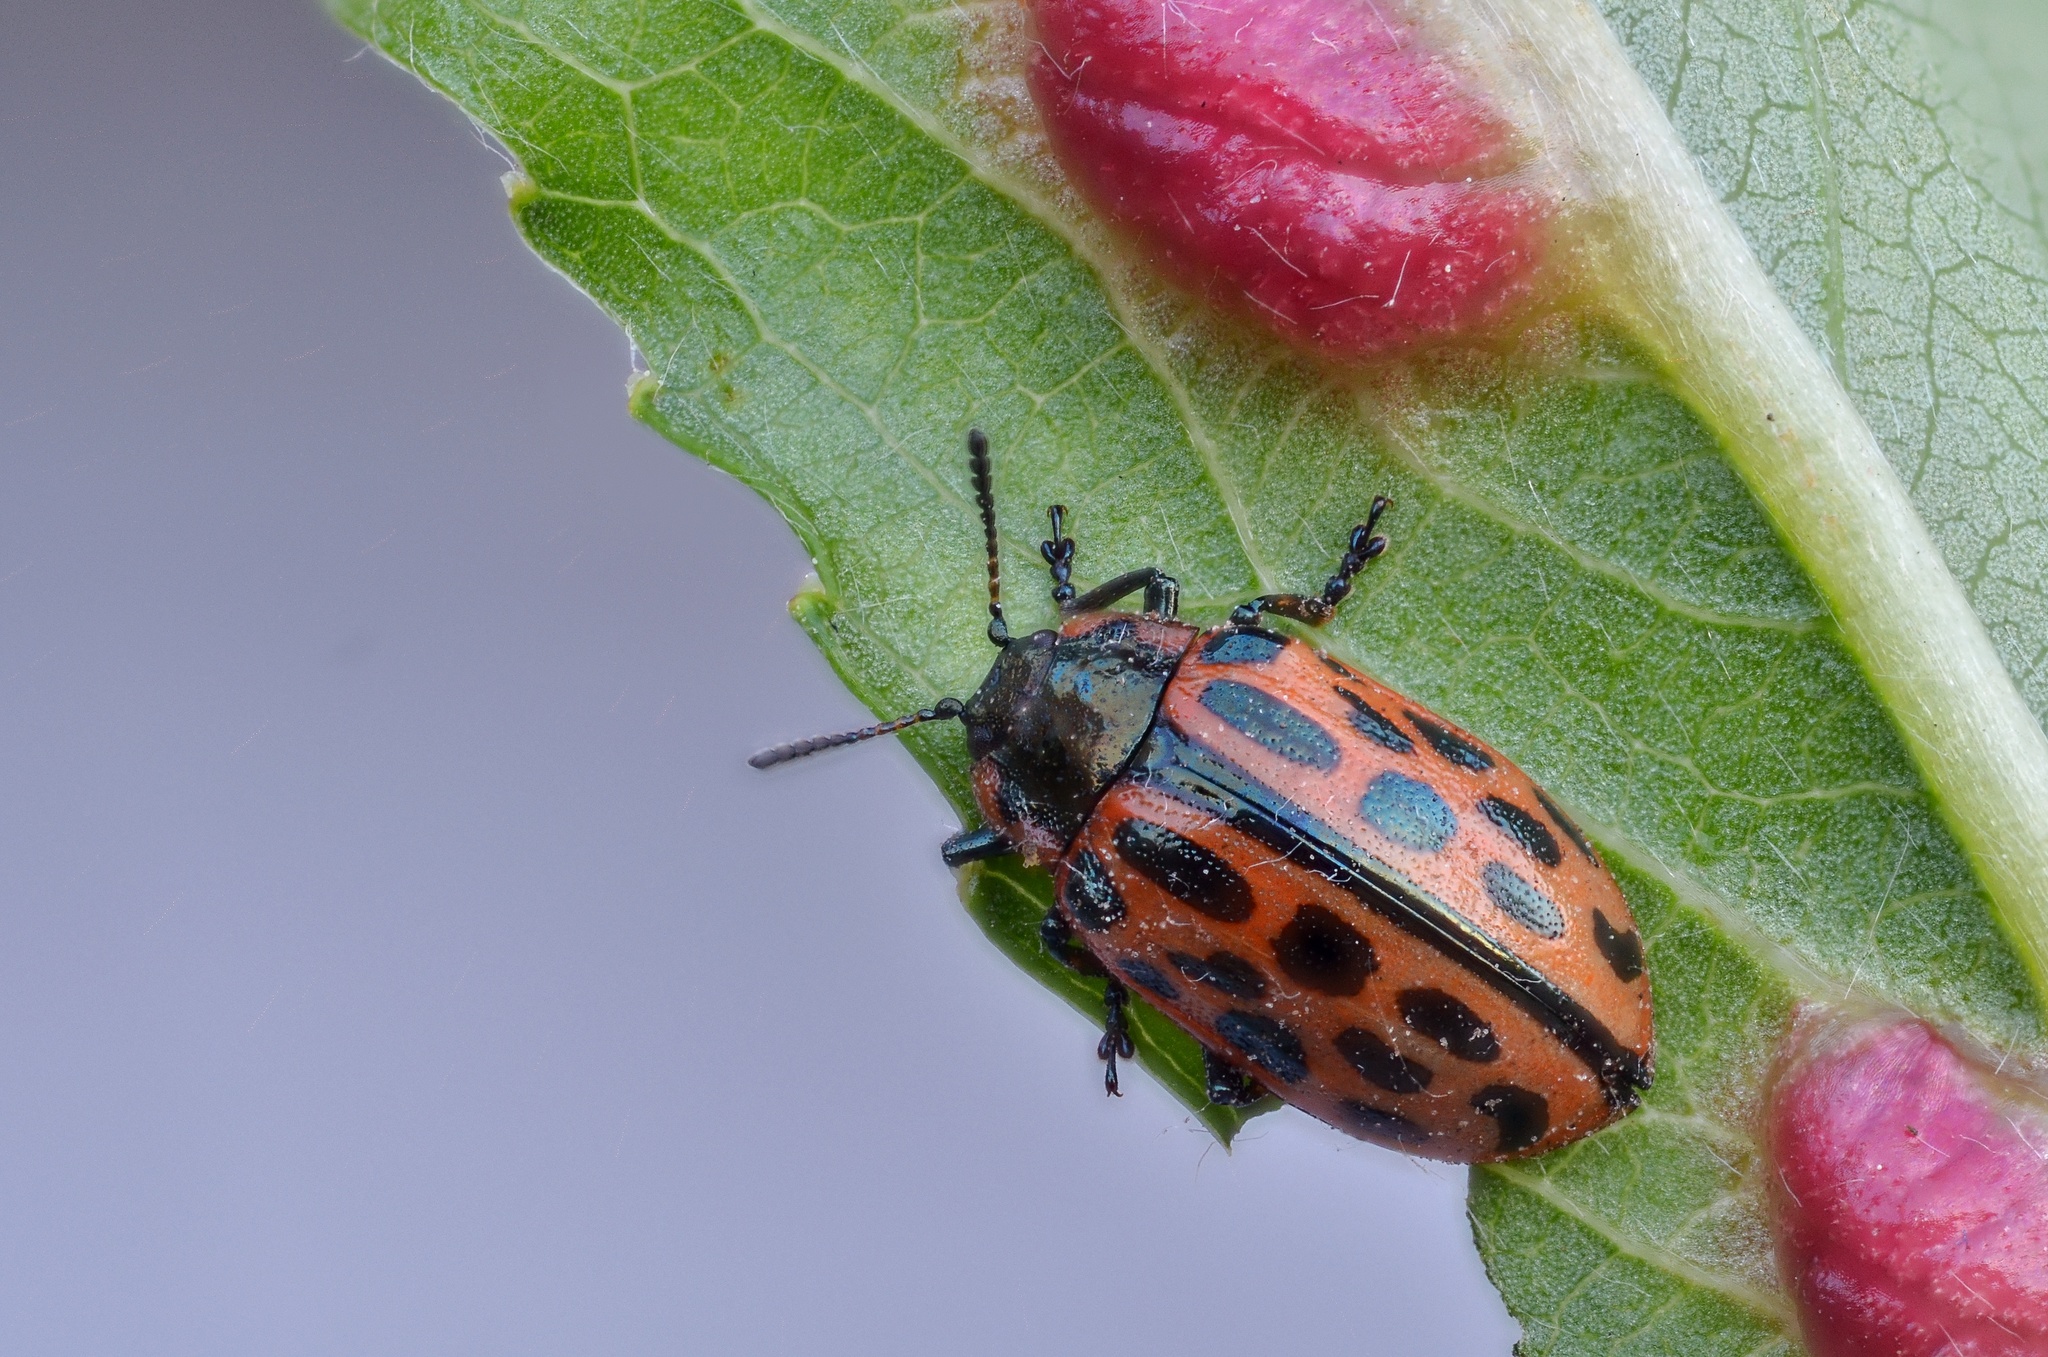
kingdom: Animalia
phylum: Arthropoda
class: Insecta
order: Coleoptera
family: Chrysomelidae
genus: Chrysomela
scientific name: Chrysomela vigintipunctata
